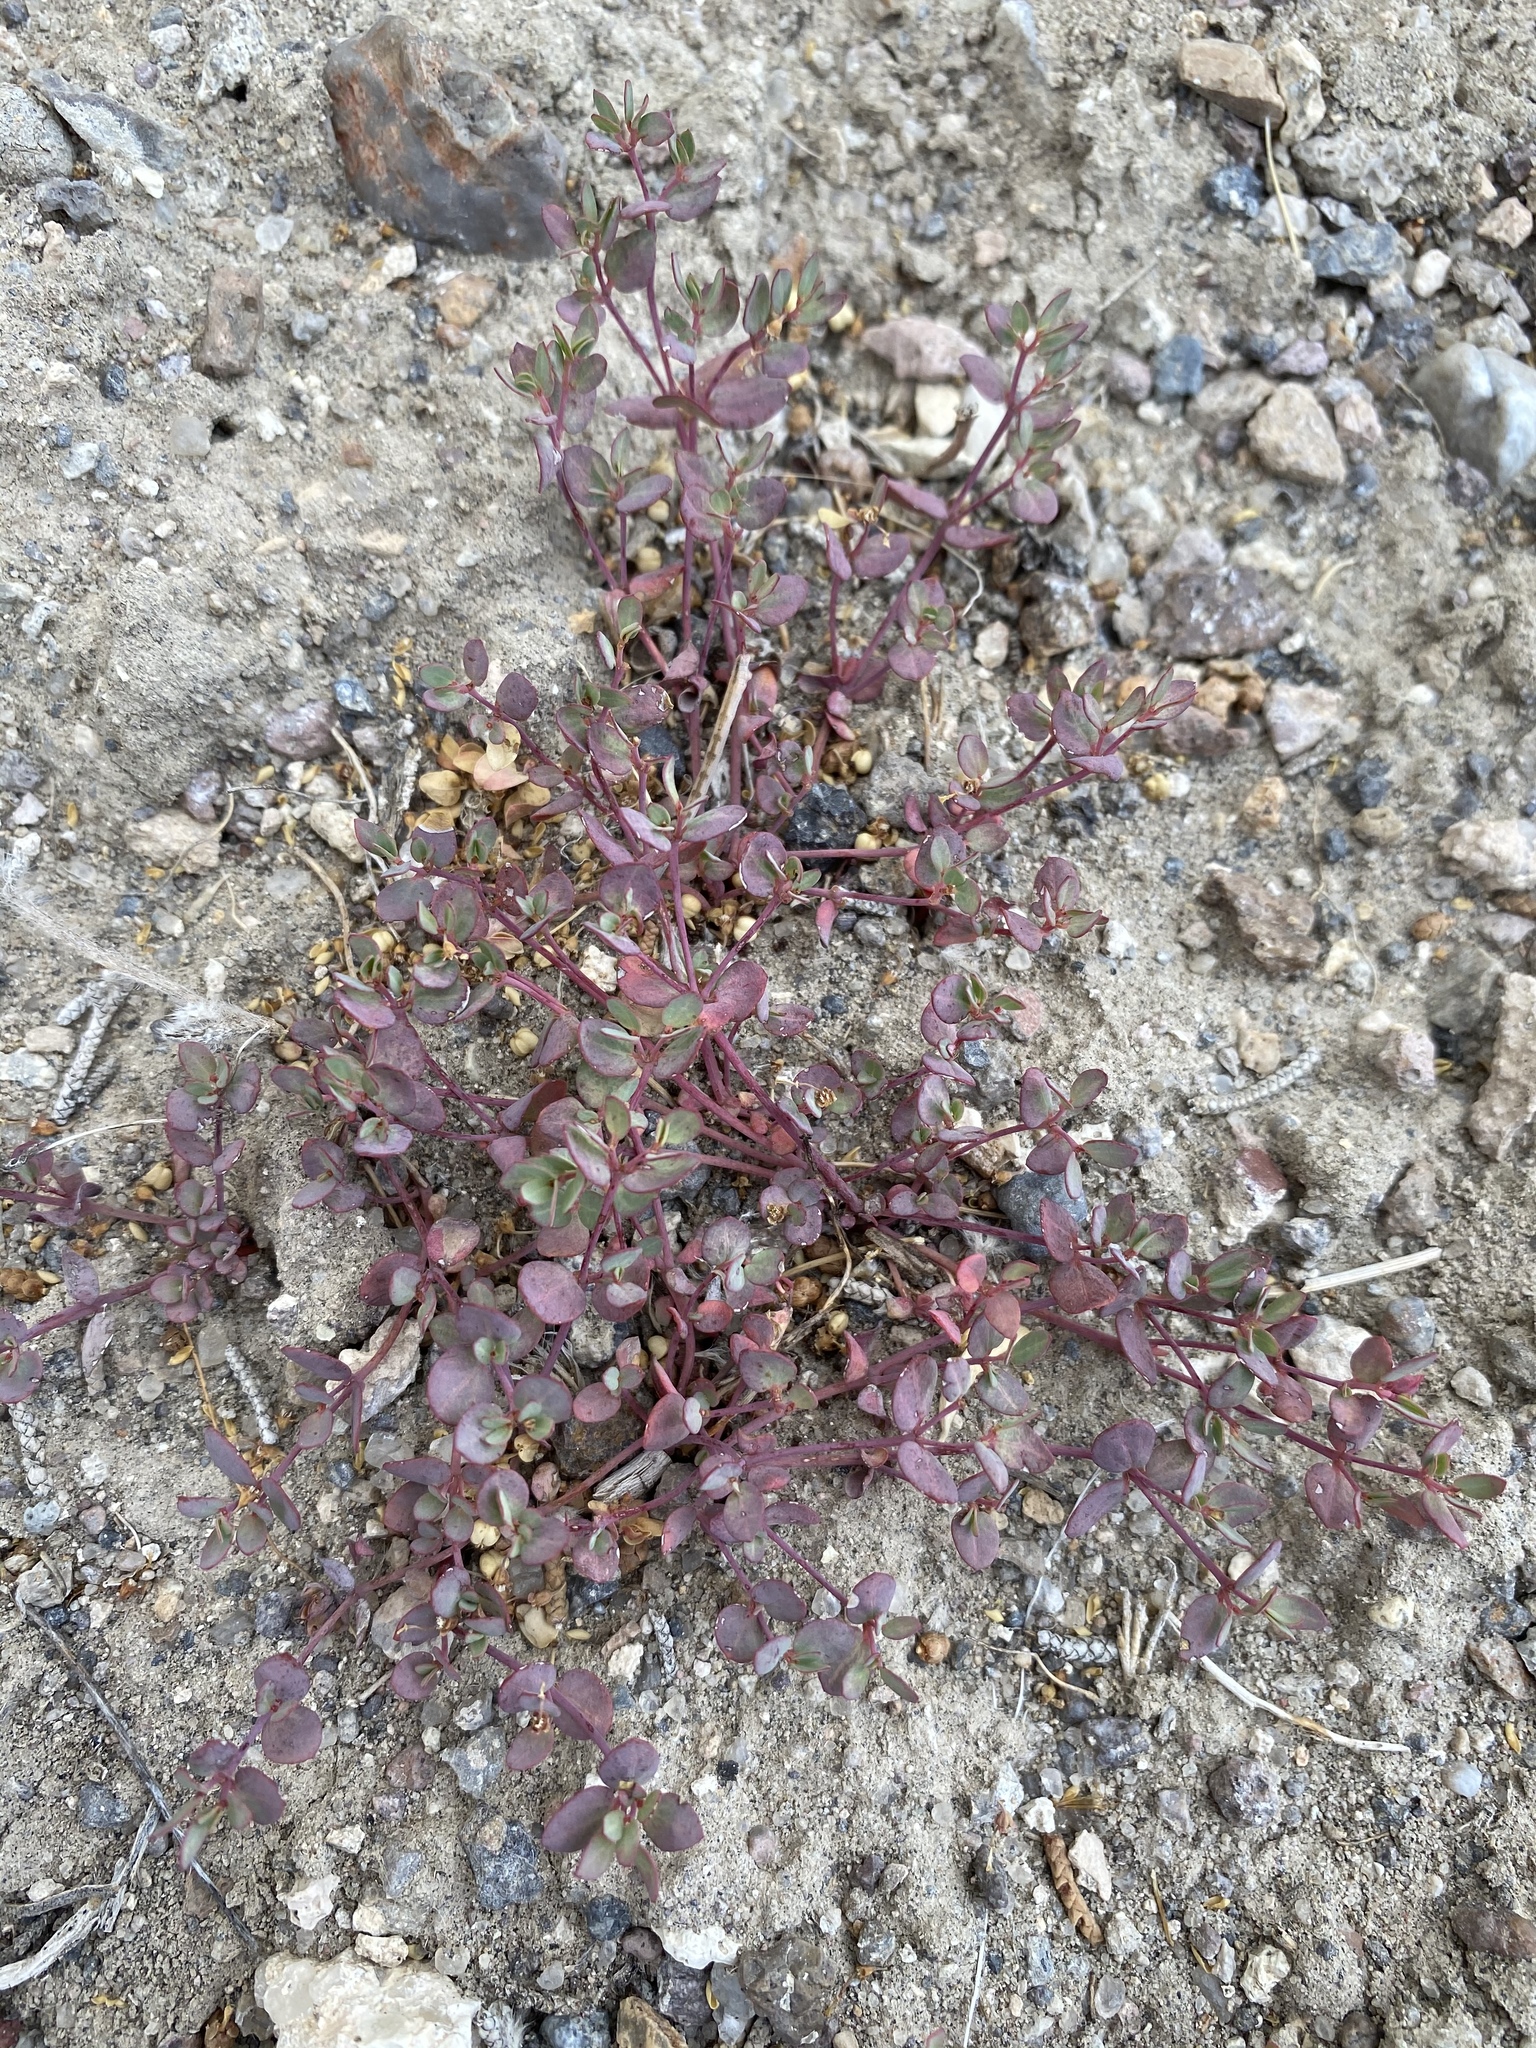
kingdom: Plantae
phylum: Tracheophyta
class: Magnoliopsida
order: Malpighiales
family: Euphorbiaceae
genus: Euphorbia
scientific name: Euphorbia fendleri
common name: Fendler's euphorbia
